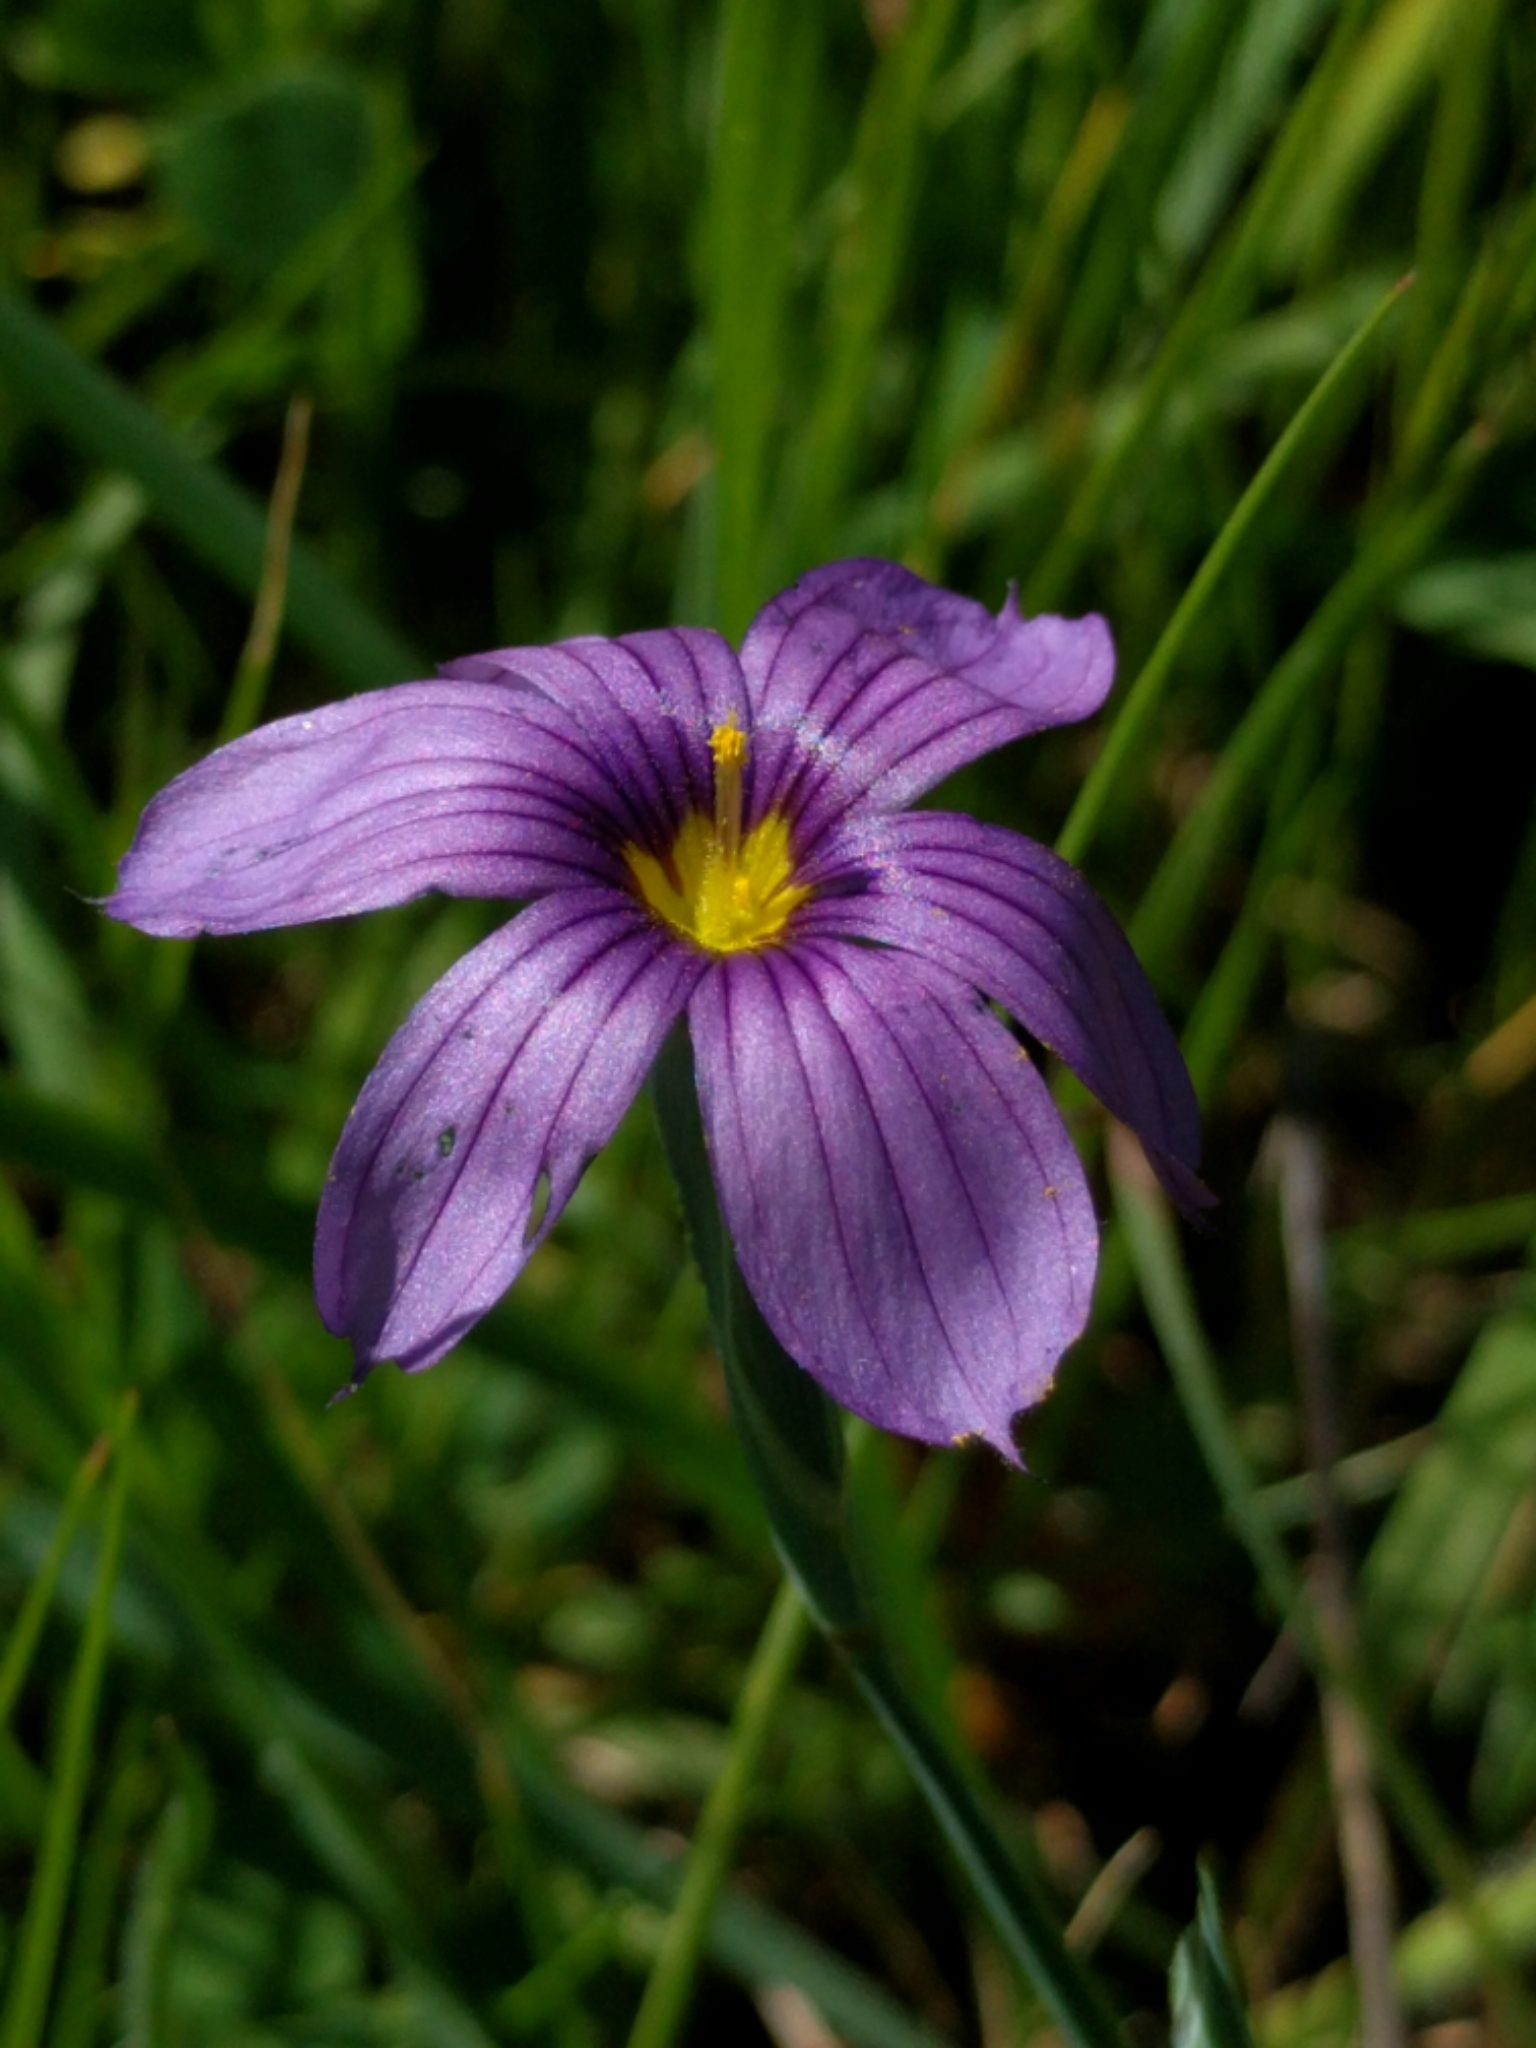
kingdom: Plantae
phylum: Tracheophyta
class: Liliopsida
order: Asparagales
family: Iridaceae
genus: Sisyrinchium
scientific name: Sisyrinchium bellum
